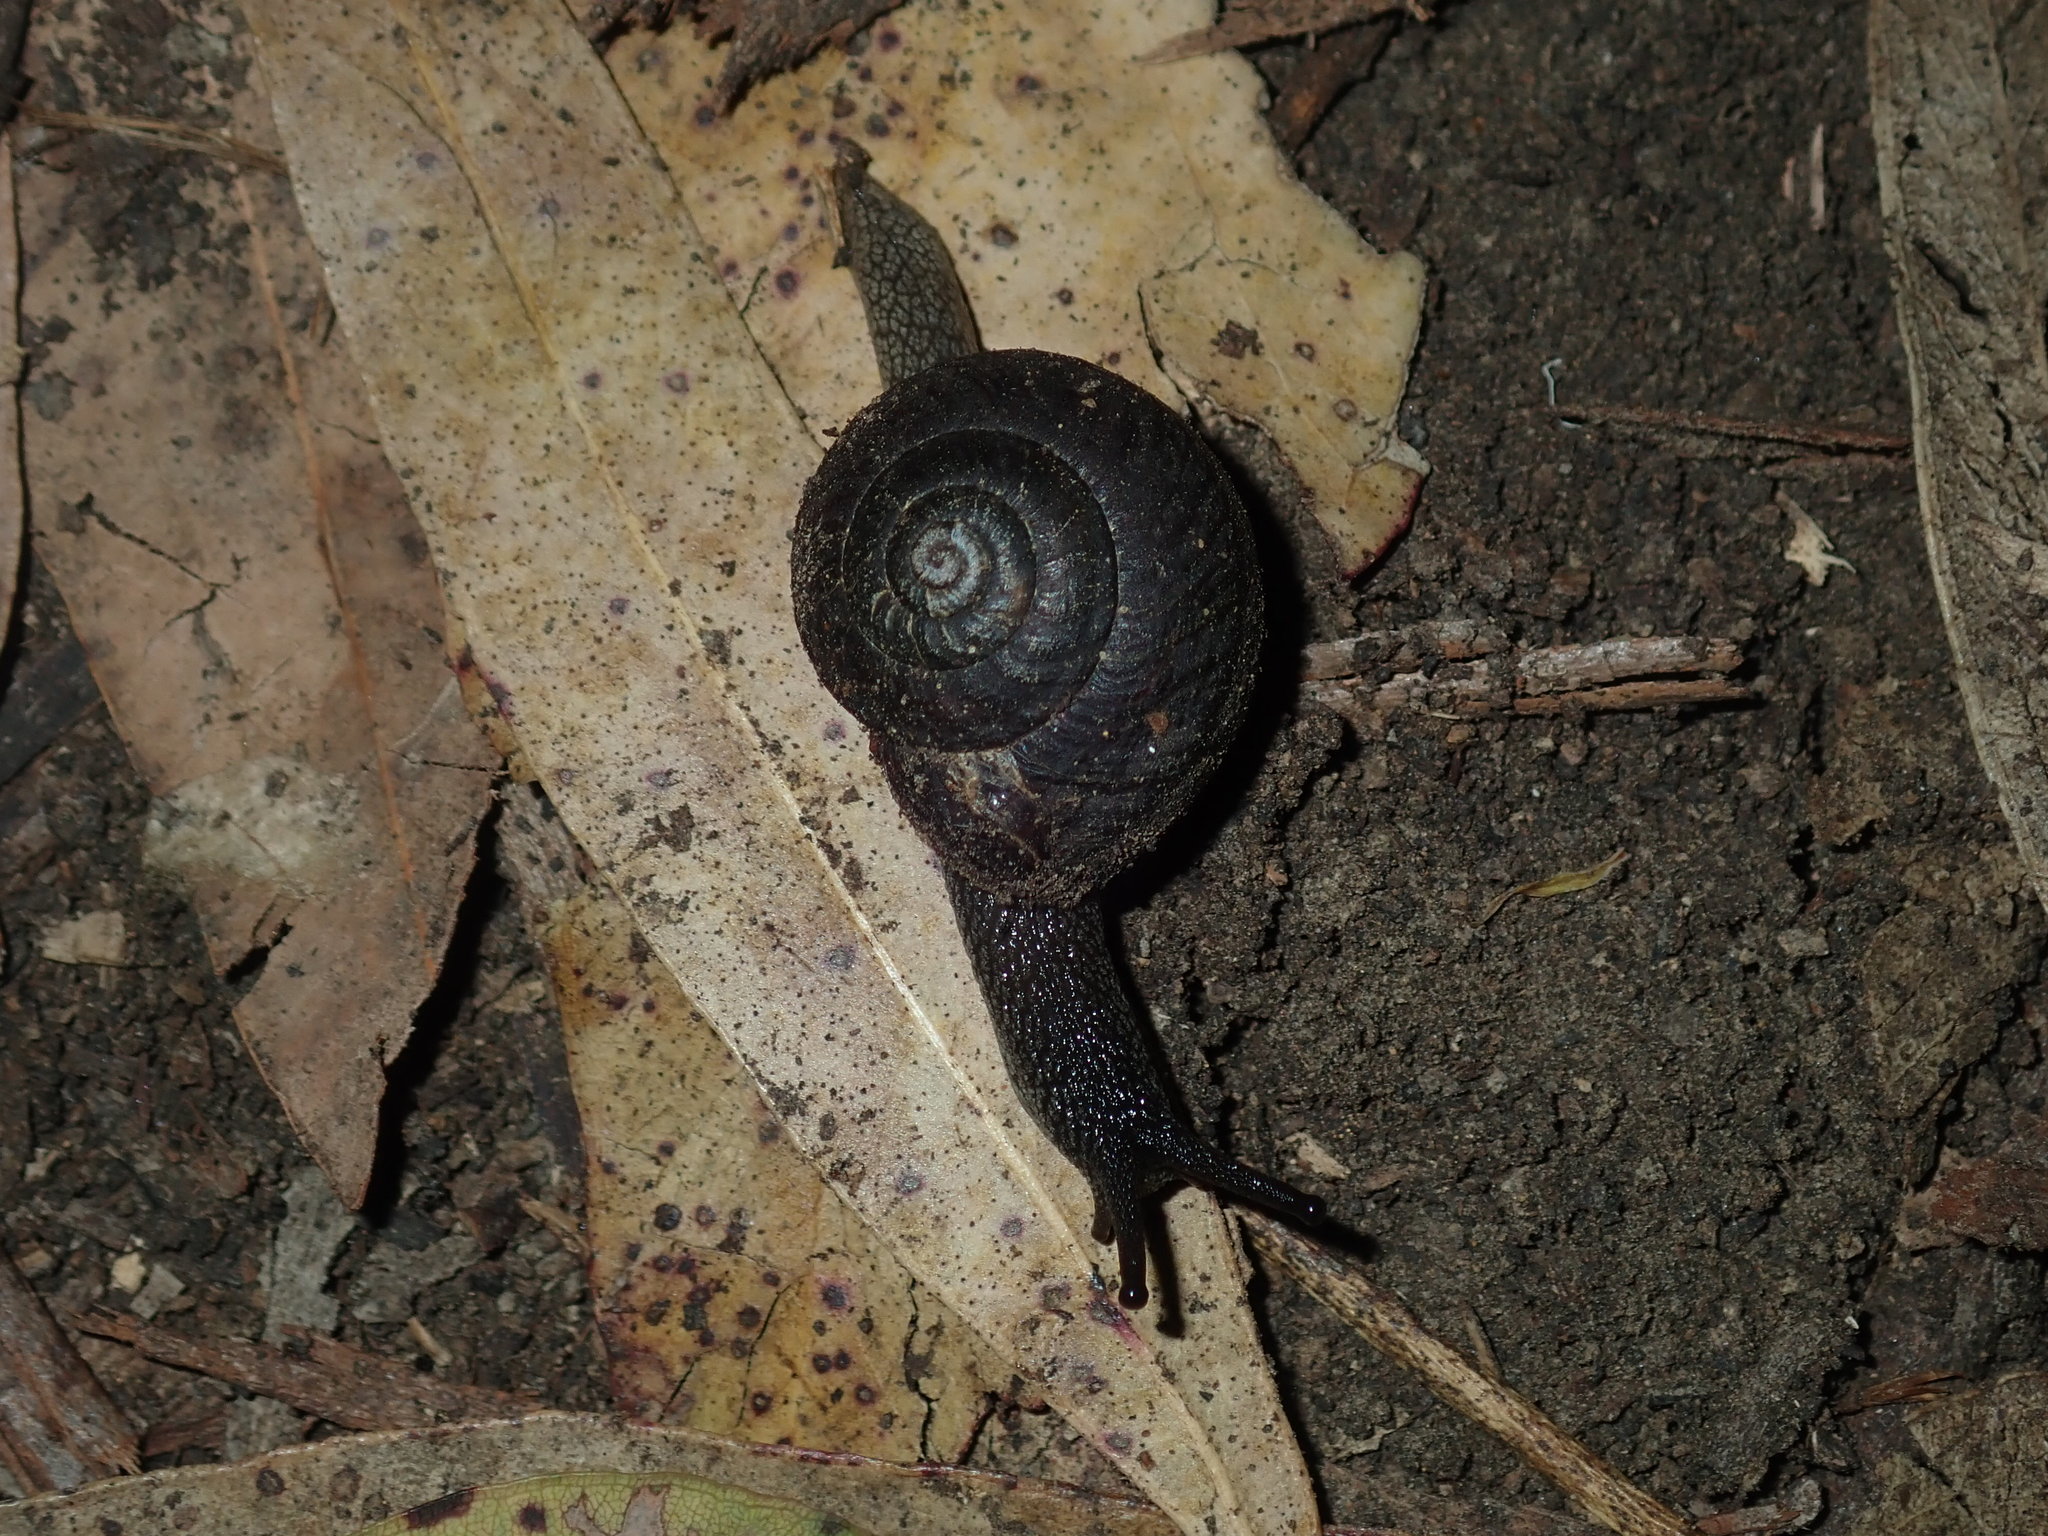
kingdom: Animalia
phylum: Mollusca
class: Gastropoda
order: Stylommatophora
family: Camaenidae
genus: Sauroconcha
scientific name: Sauroconcha sheai
